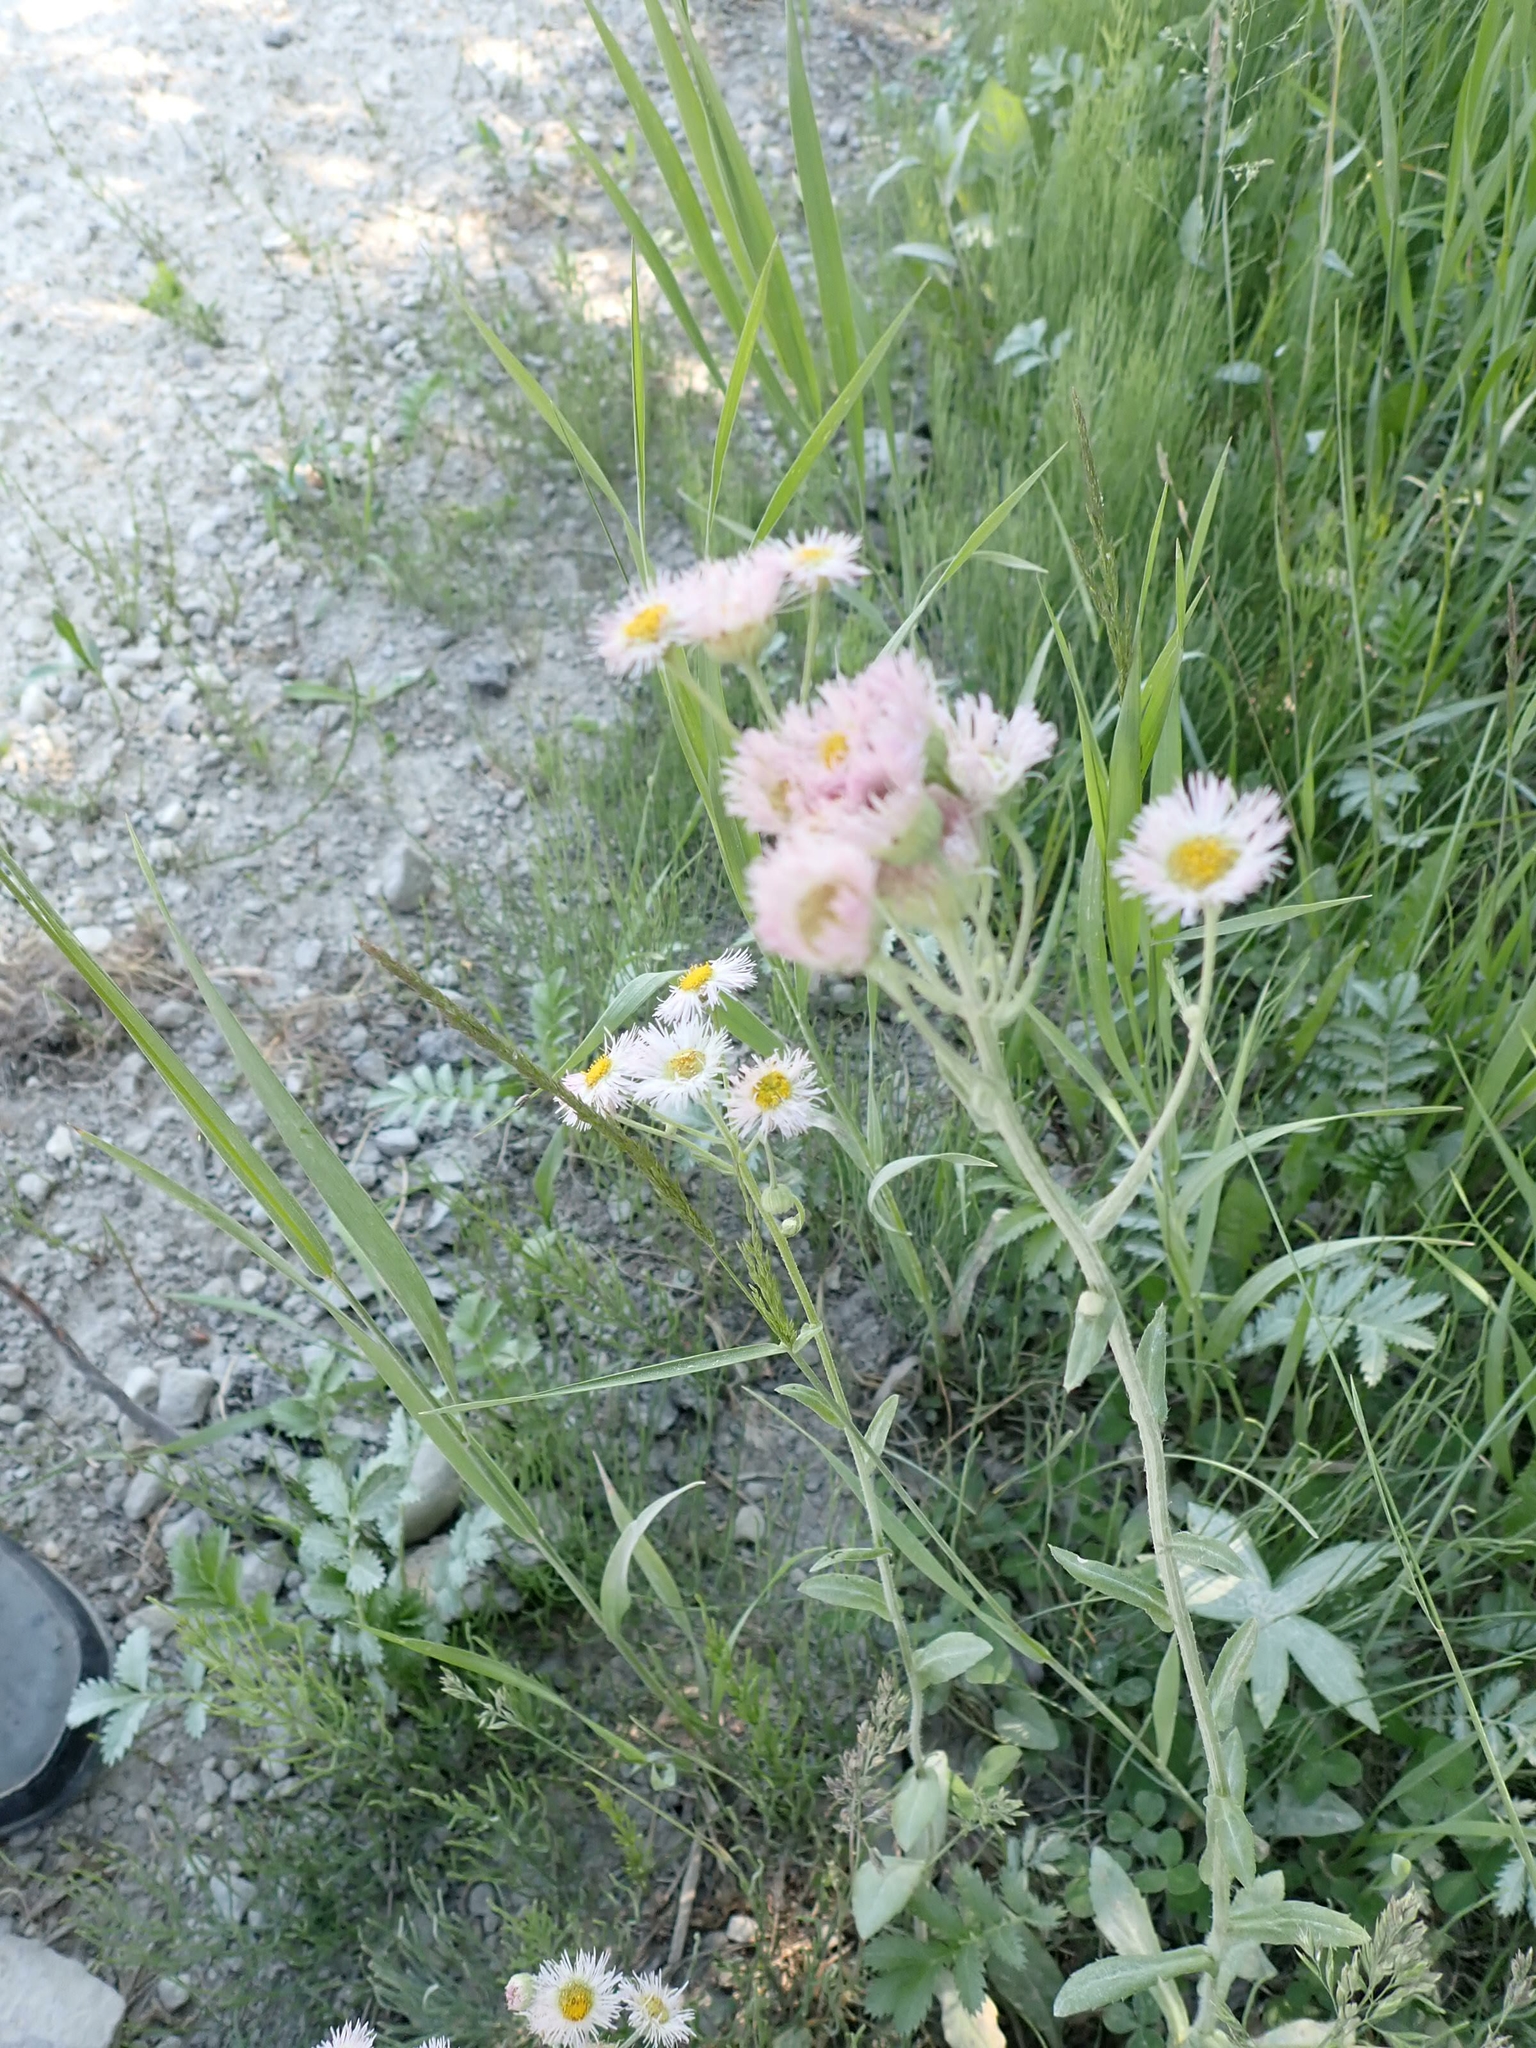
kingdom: Plantae
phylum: Tracheophyta
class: Magnoliopsida
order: Asterales
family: Asteraceae
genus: Erigeron
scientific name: Erigeron philadelphicus
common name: Robin's-plantain
